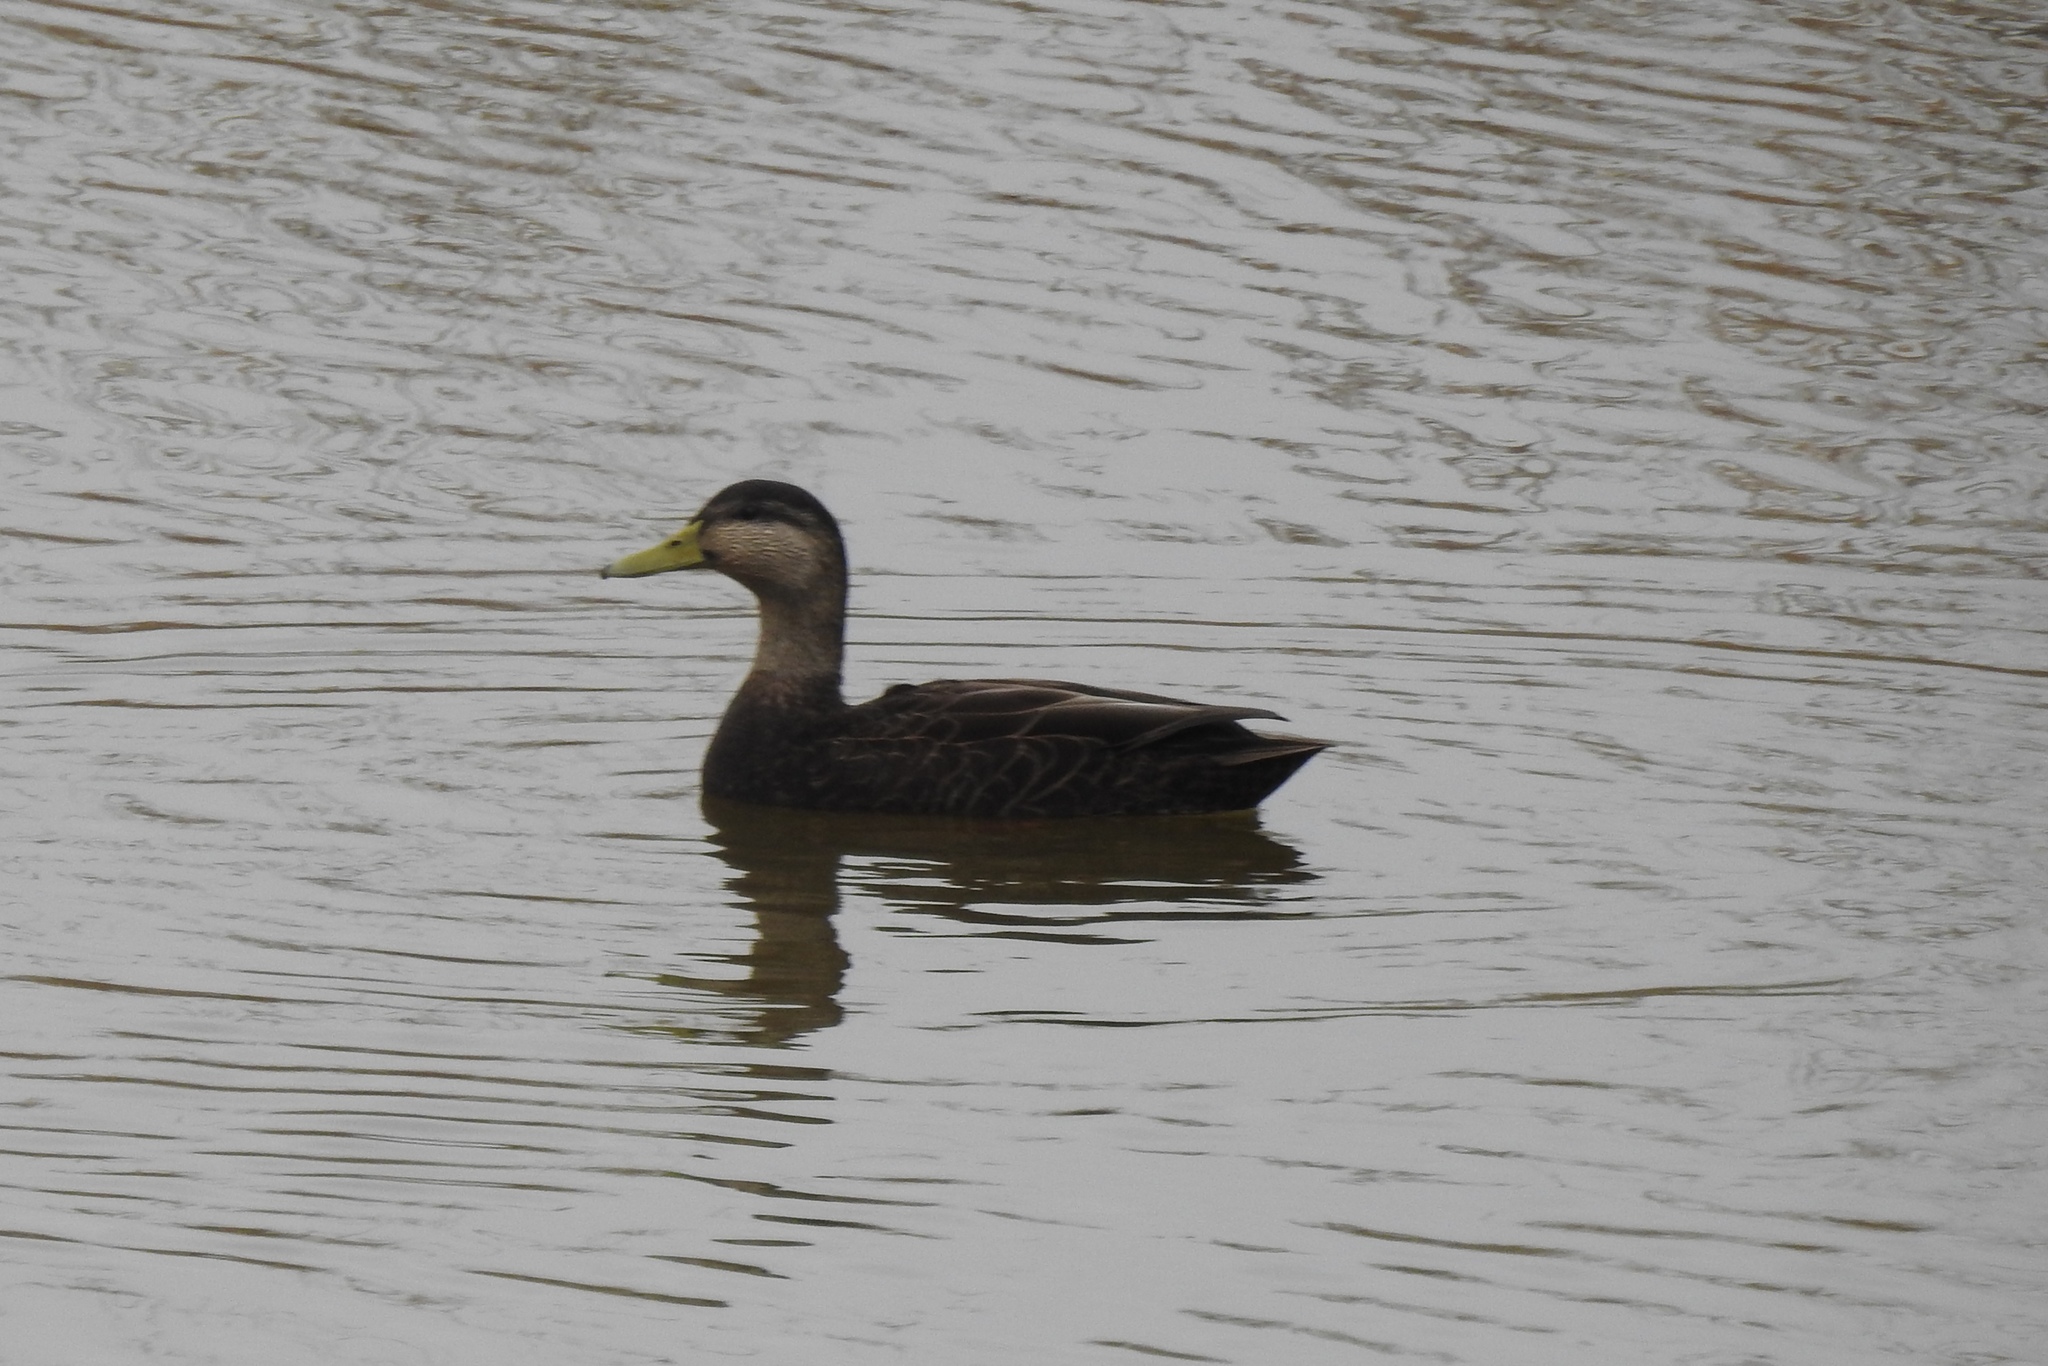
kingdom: Animalia
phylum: Chordata
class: Aves
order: Anseriformes
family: Anatidae
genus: Anas
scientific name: Anas rubripes
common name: American black duck
